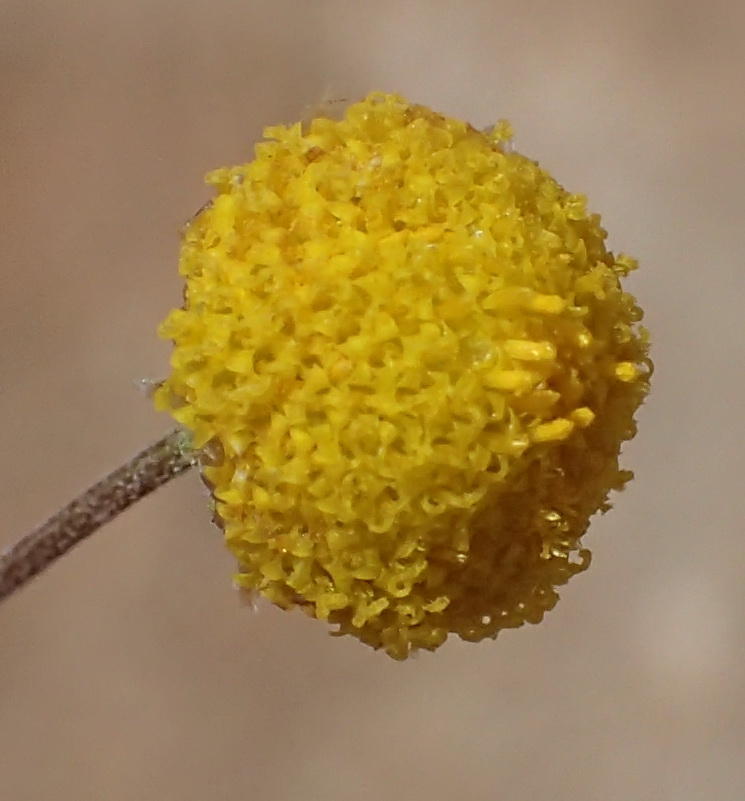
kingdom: Plantae
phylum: Tracheophyta
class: Magnoliopsida
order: Asterales
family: Asteraceae
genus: Pentzia
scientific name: Pentzia quinquefida
